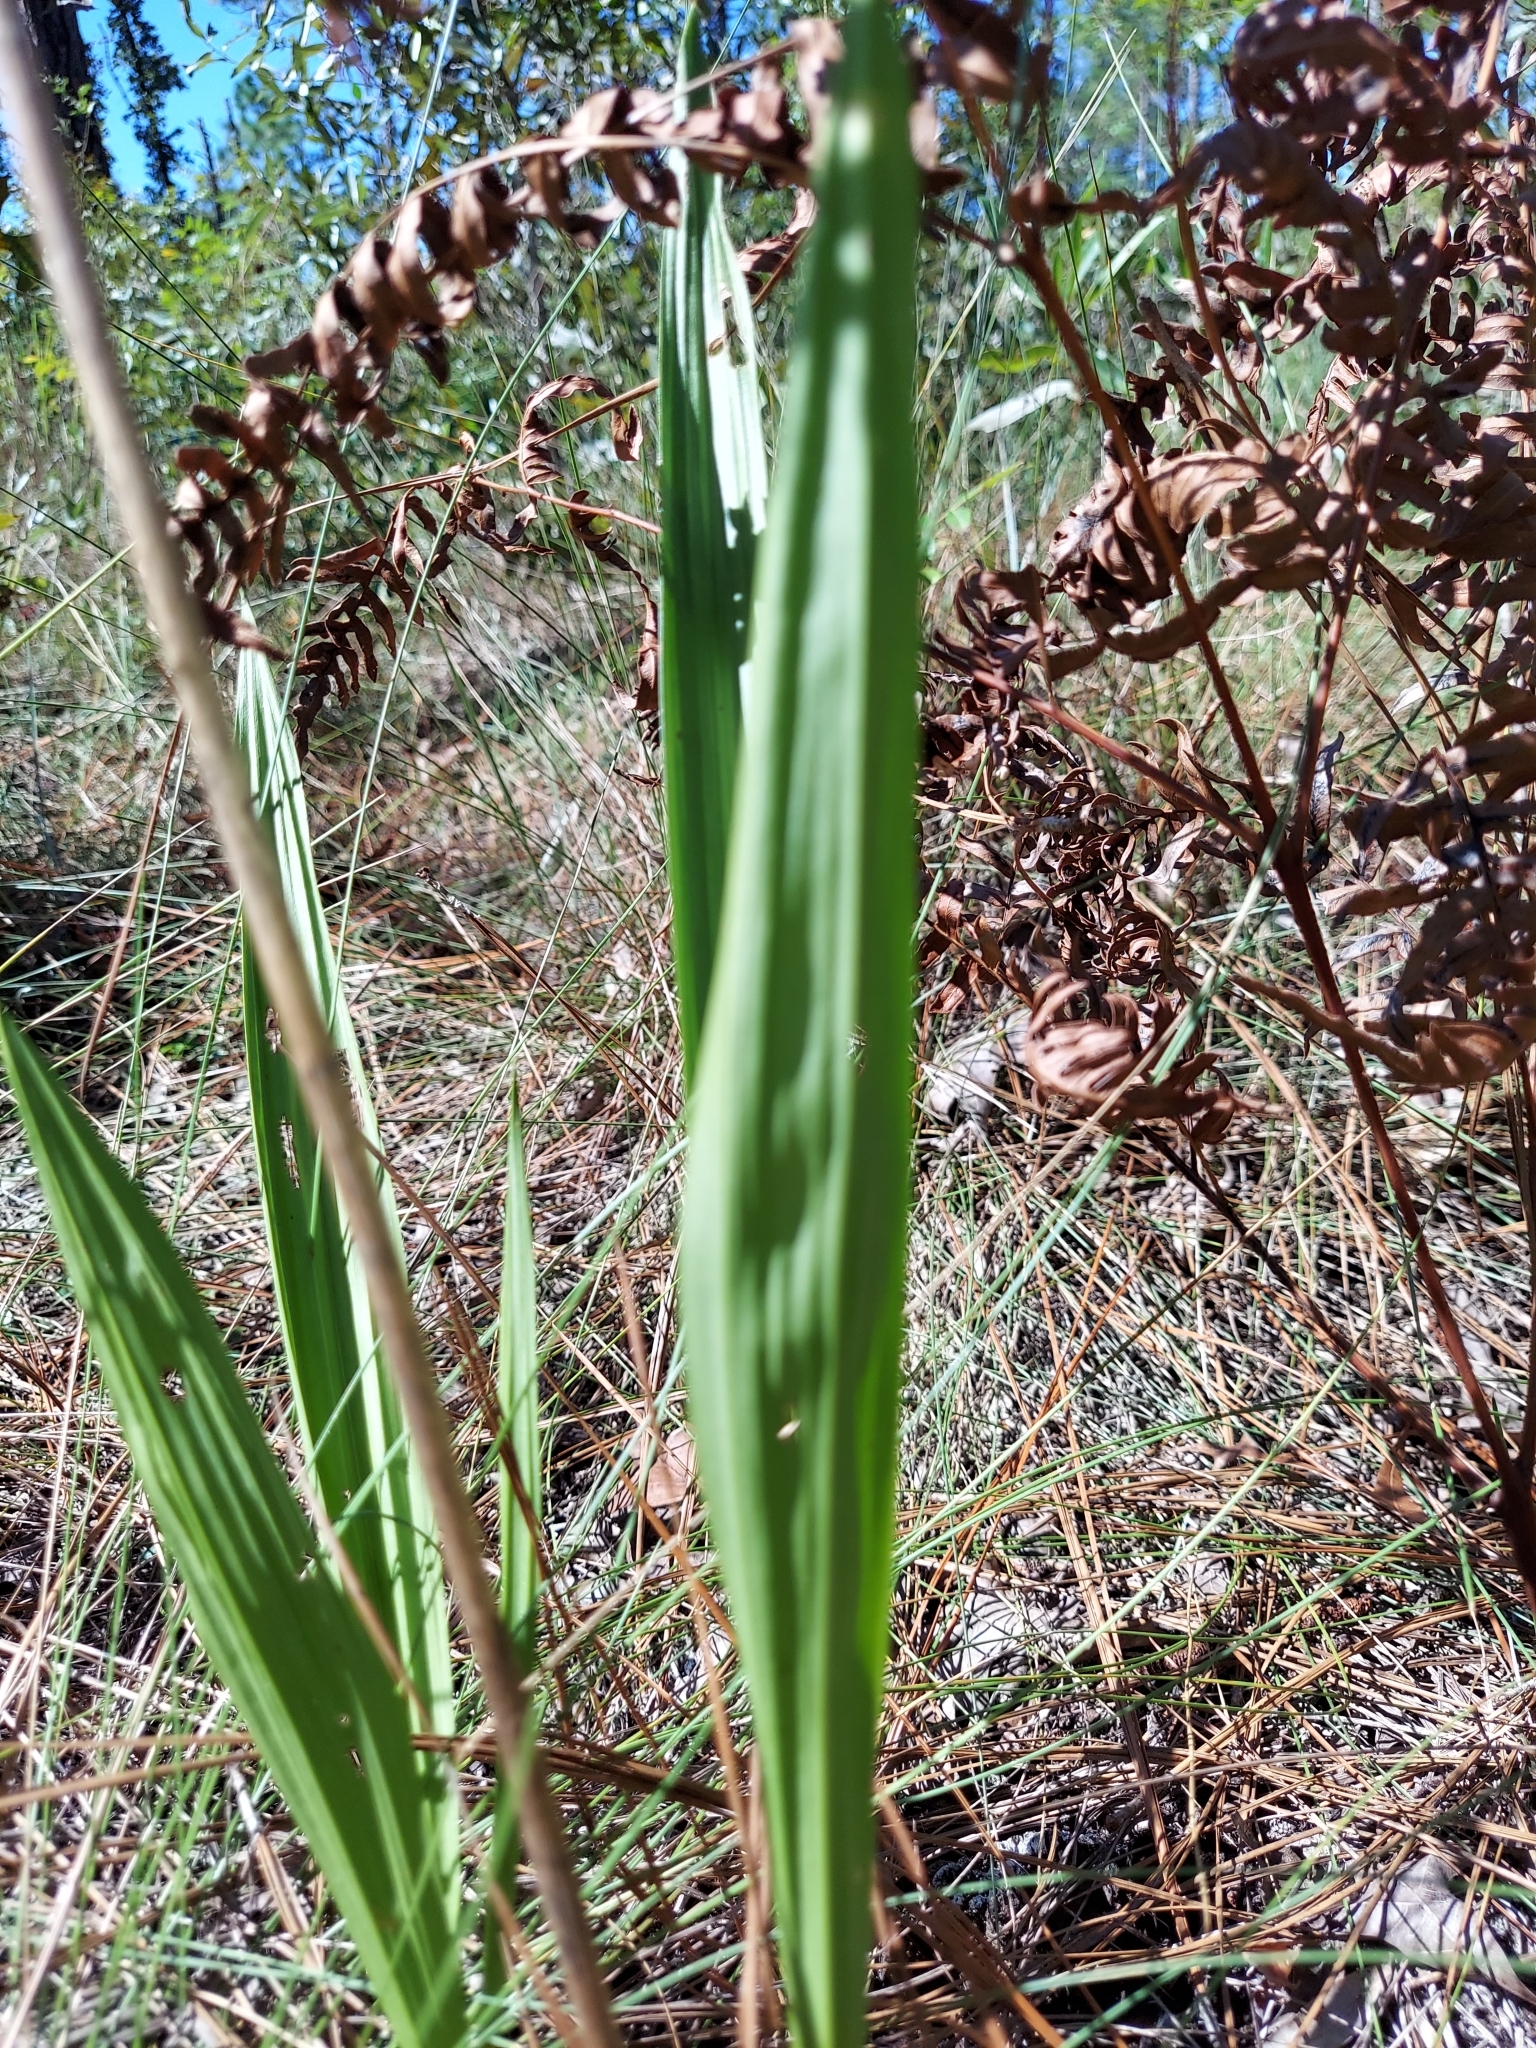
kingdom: Plantae
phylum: Tracheophyta
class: Liliopsida
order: Asparagales
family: Orchidaceae
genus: Eulophia
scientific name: Eulophia ecristata
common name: Giant orchid
